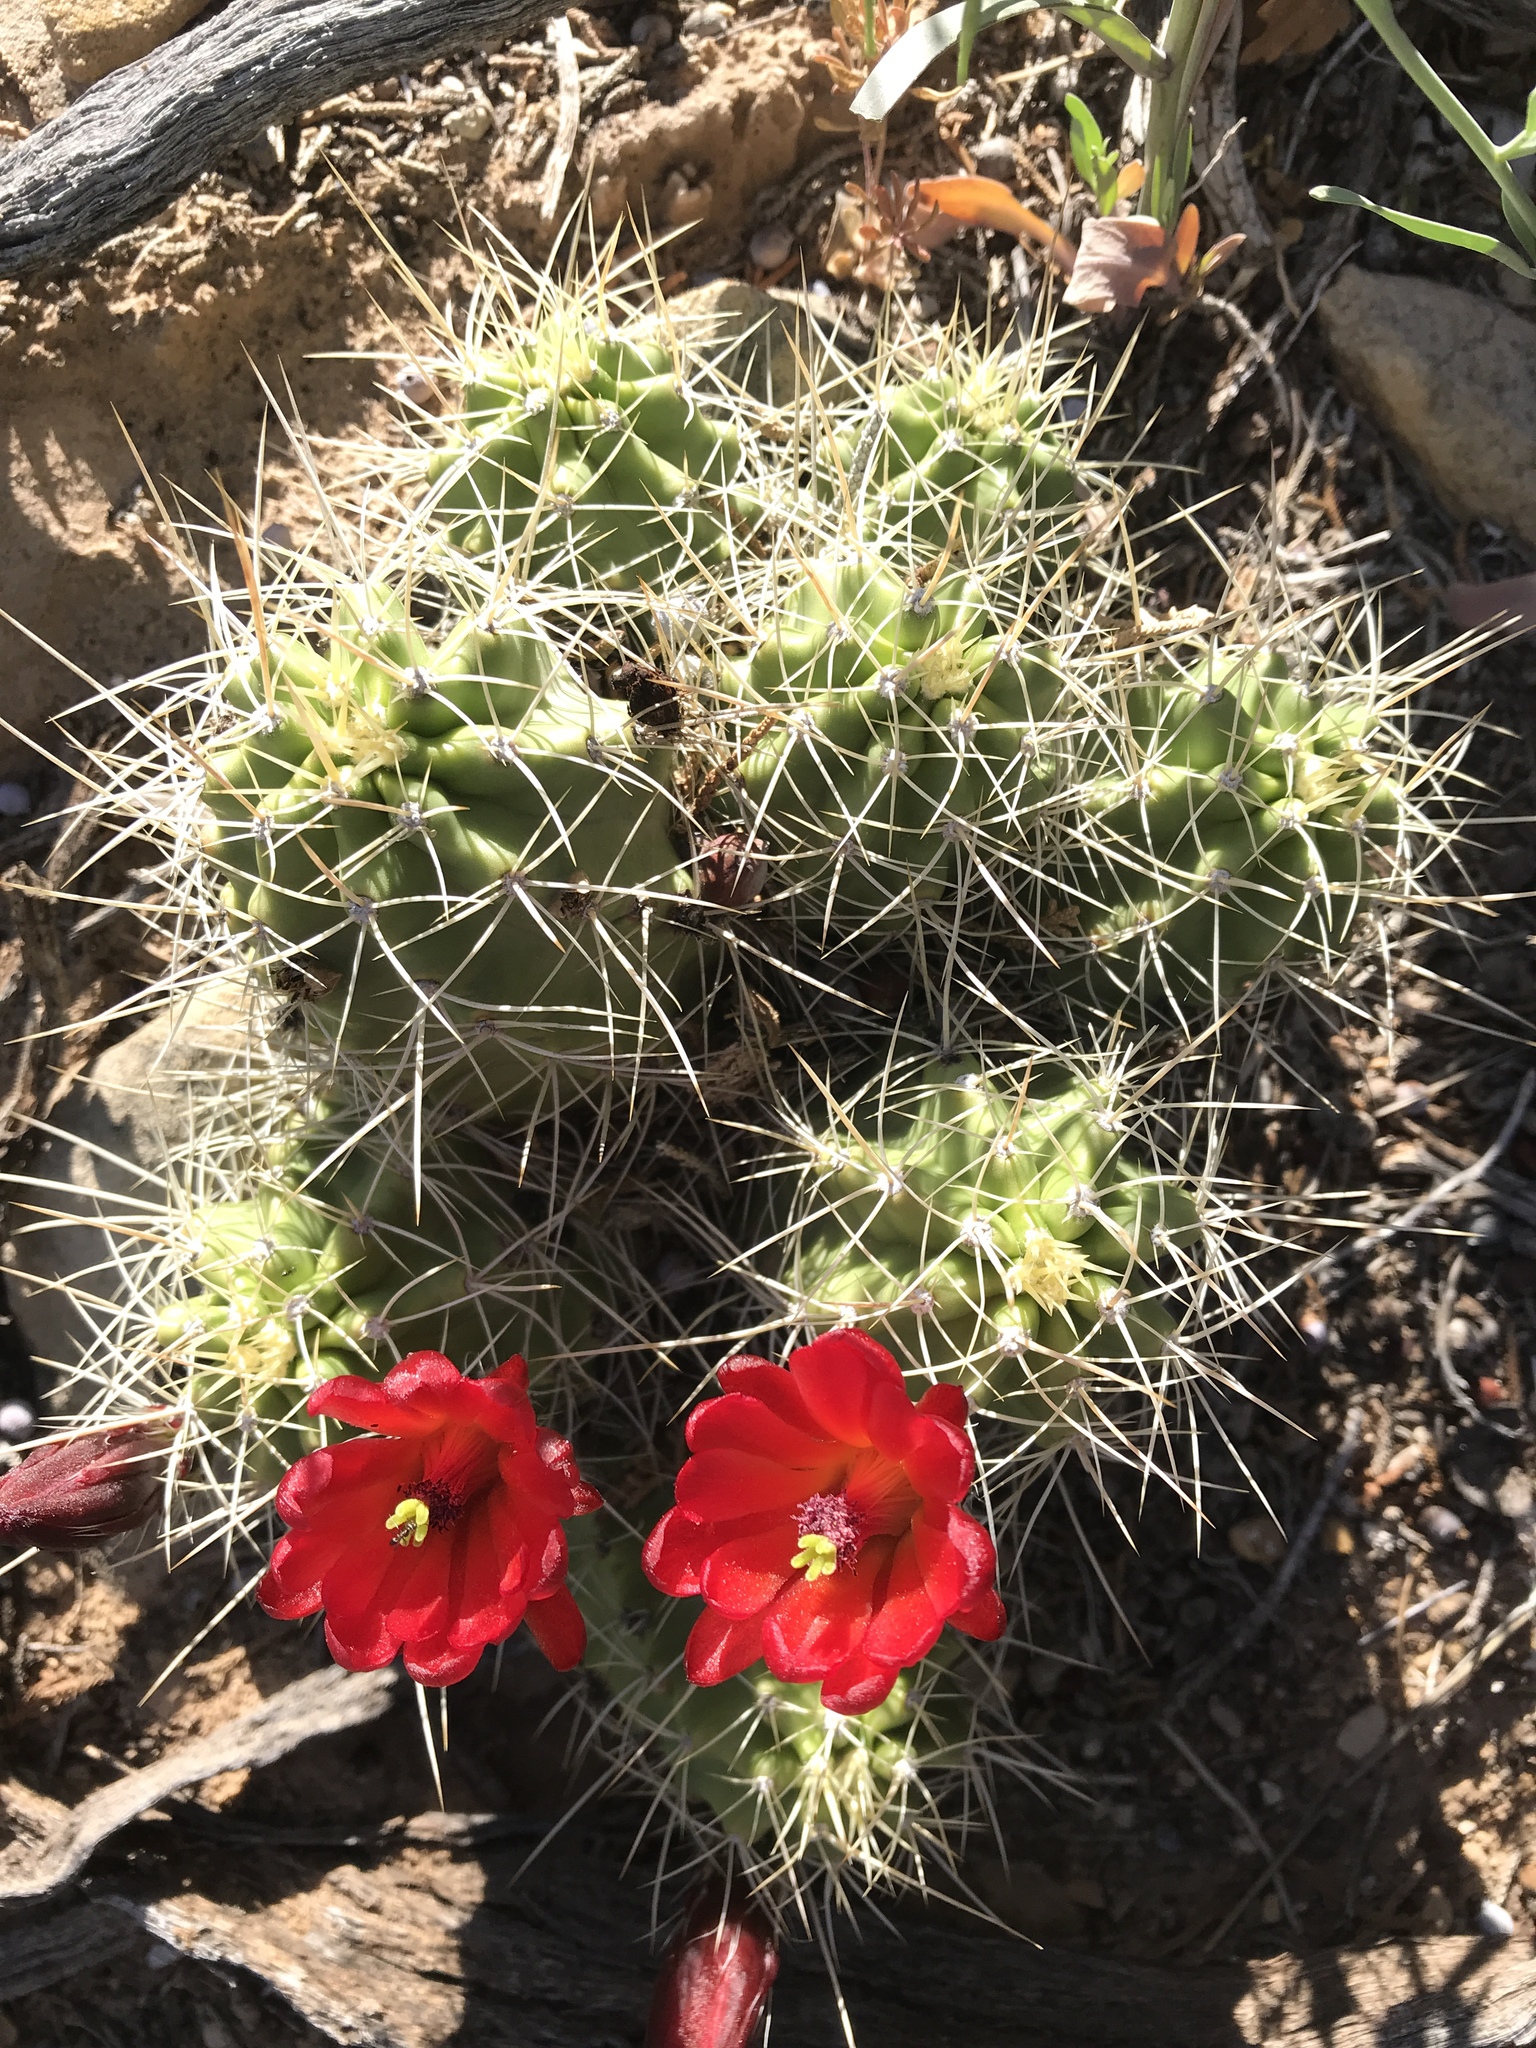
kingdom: Plantae
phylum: Tracheophyta
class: Magnoliopsida
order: Caryophyllales
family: Cactaceae
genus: Echinocereus
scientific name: Echinocereus triglochidiatus
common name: Claretcup hedgehog
